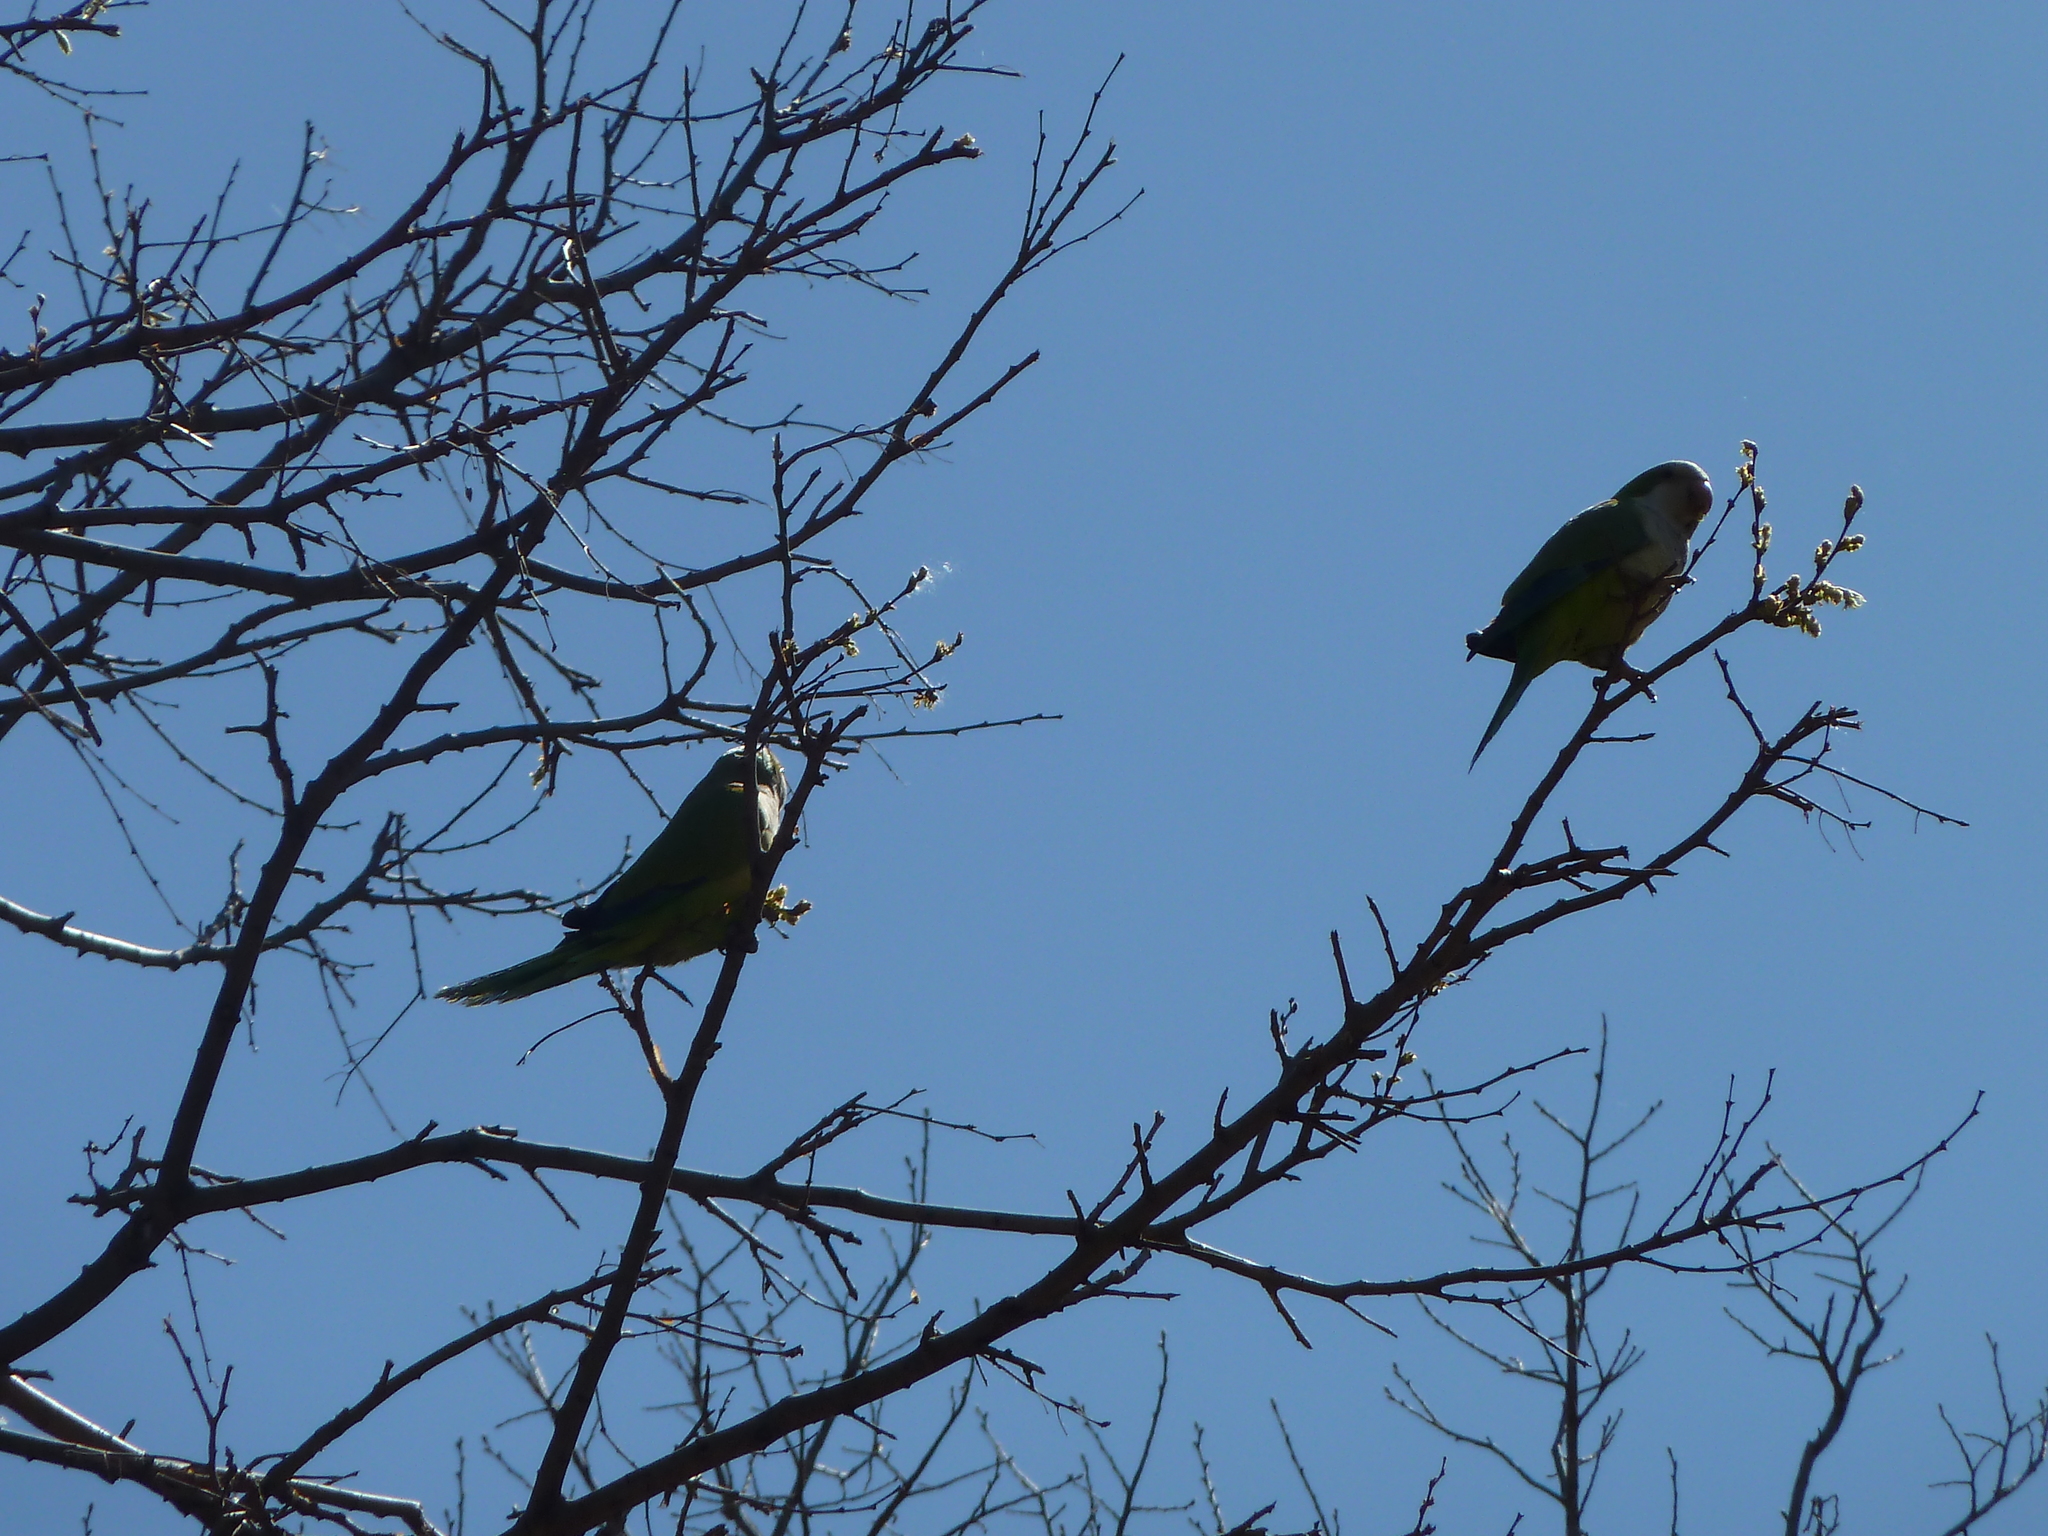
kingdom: Animalia
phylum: Chordata
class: Aves
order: Psittaciformes
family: Psittacidae
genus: Myiopsitta
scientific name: Myiopsitta monachus
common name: Monk parakeet
